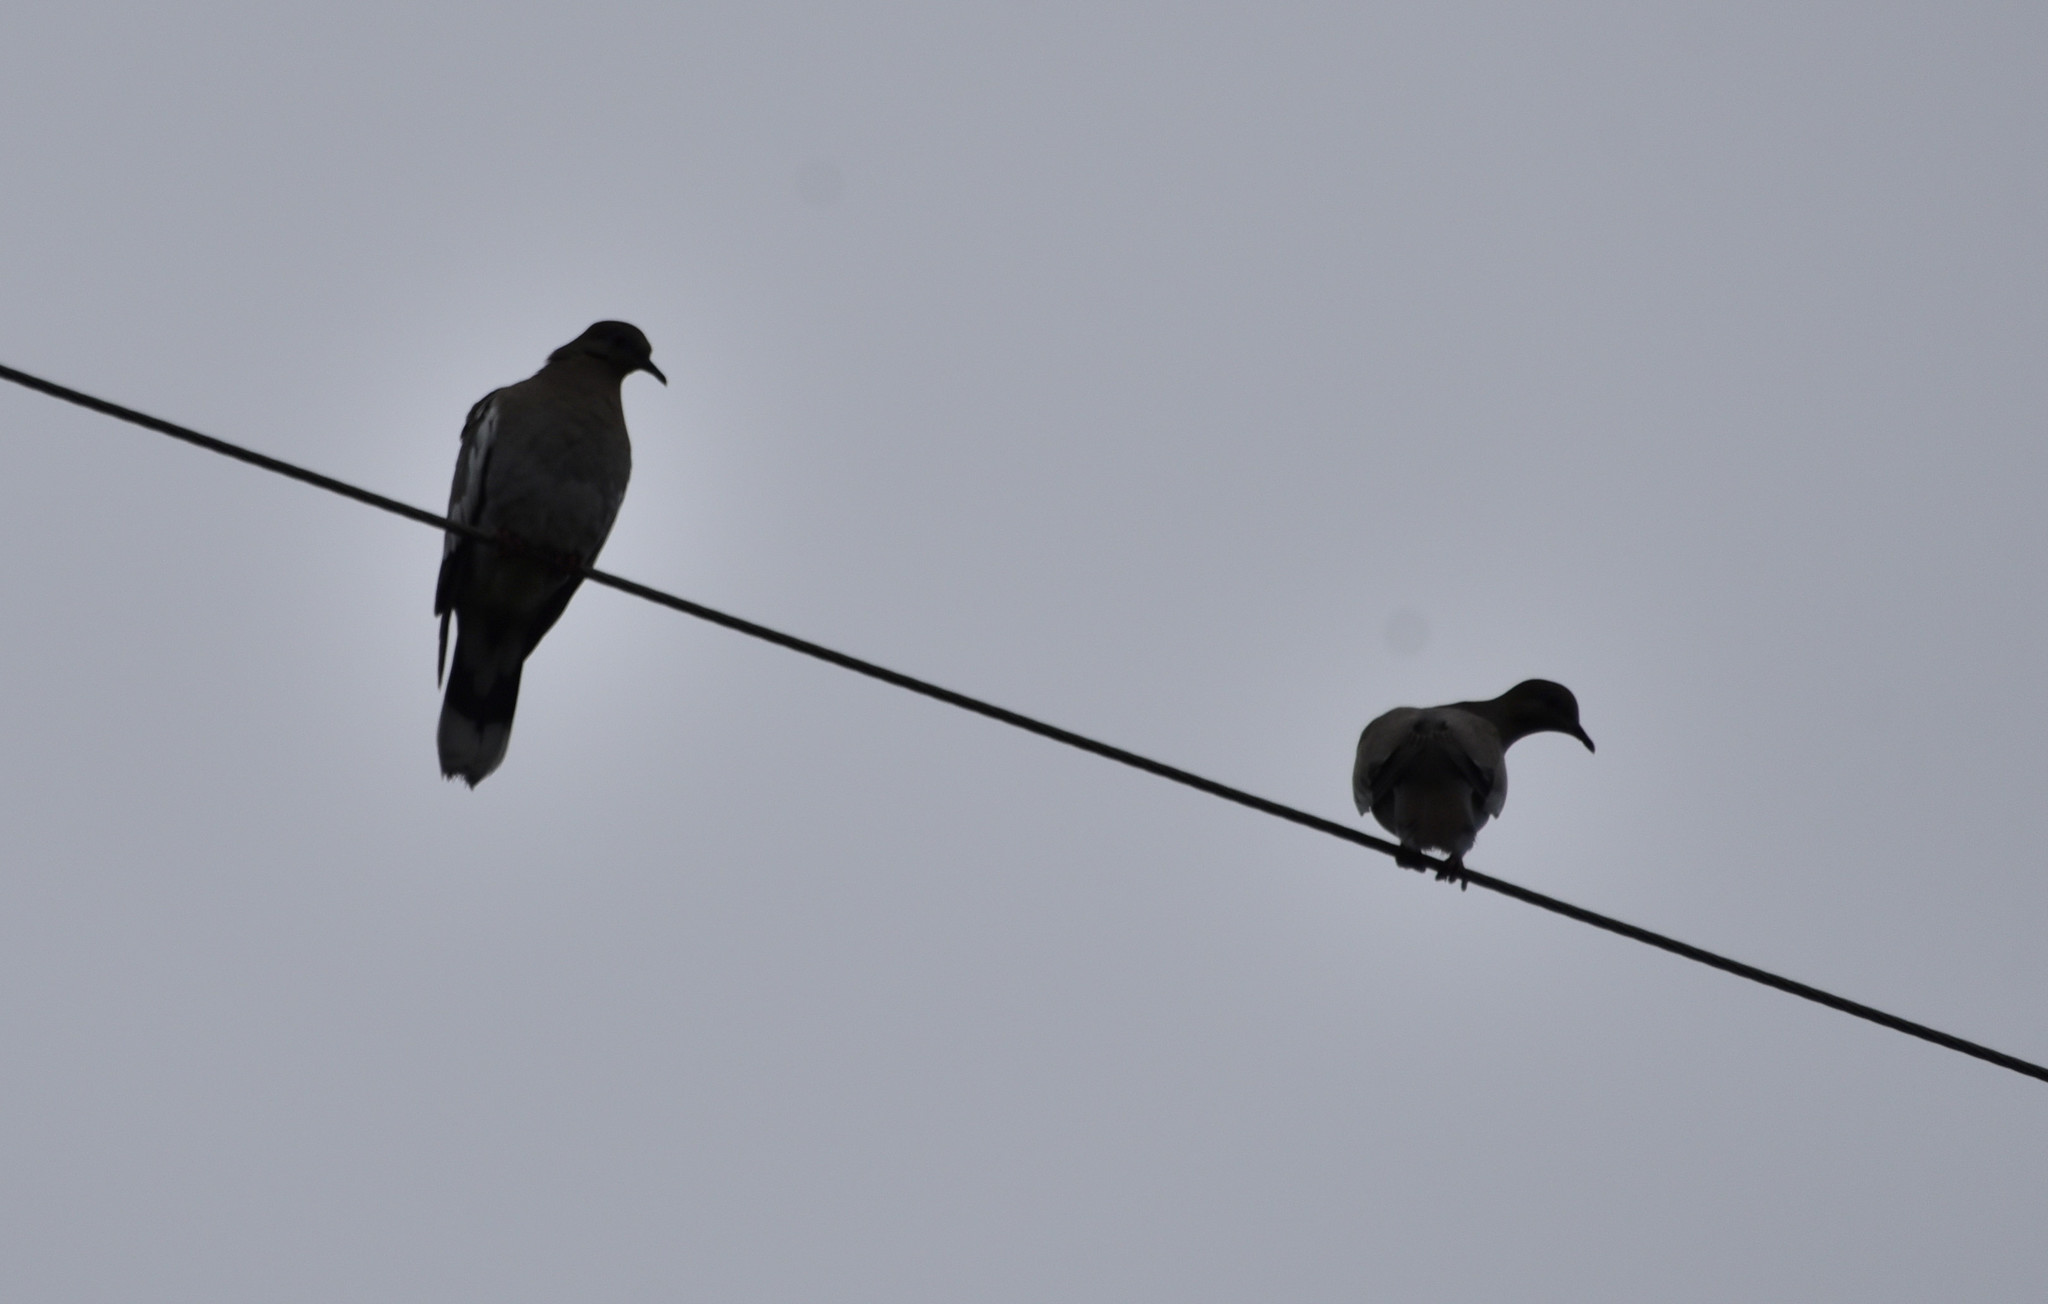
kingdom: Animalia
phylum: Chordata
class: Aves
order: Columbiformes
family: Columbidae
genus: Zenaida
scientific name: Zenaida asiatica
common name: White-winged dove
